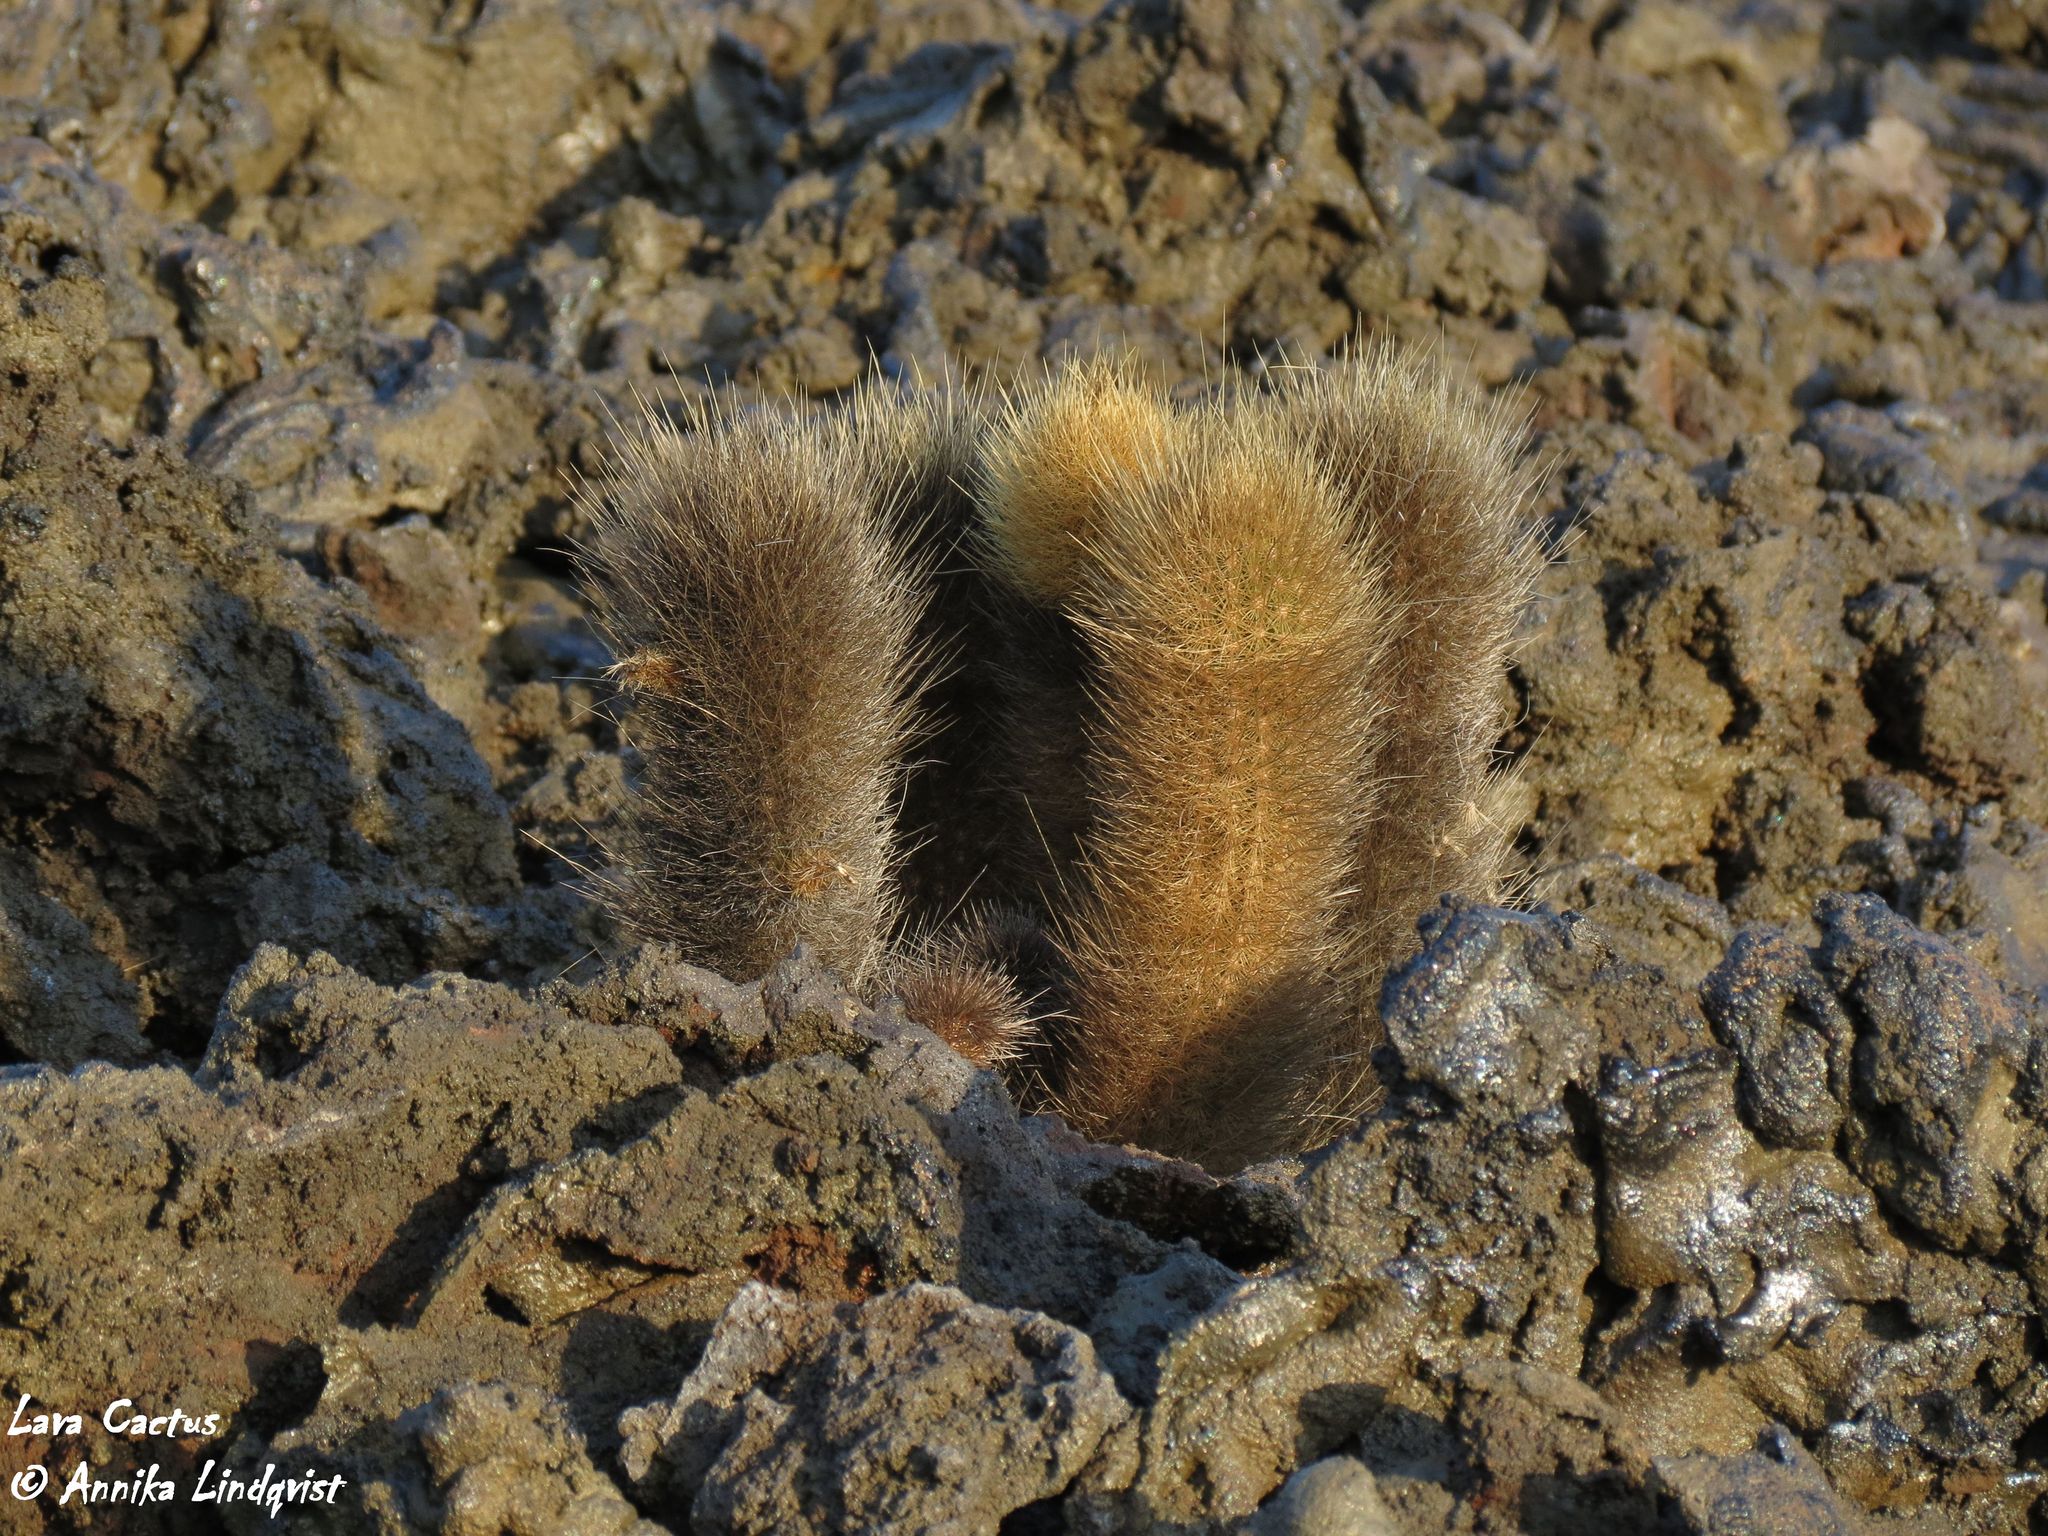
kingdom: Plantae
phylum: Tracheophyta
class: Magnoliopsida
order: Caryophyllales
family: Cactaceae
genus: Brachycereus
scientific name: Brachycereus nesioticus
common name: Lava cactus
